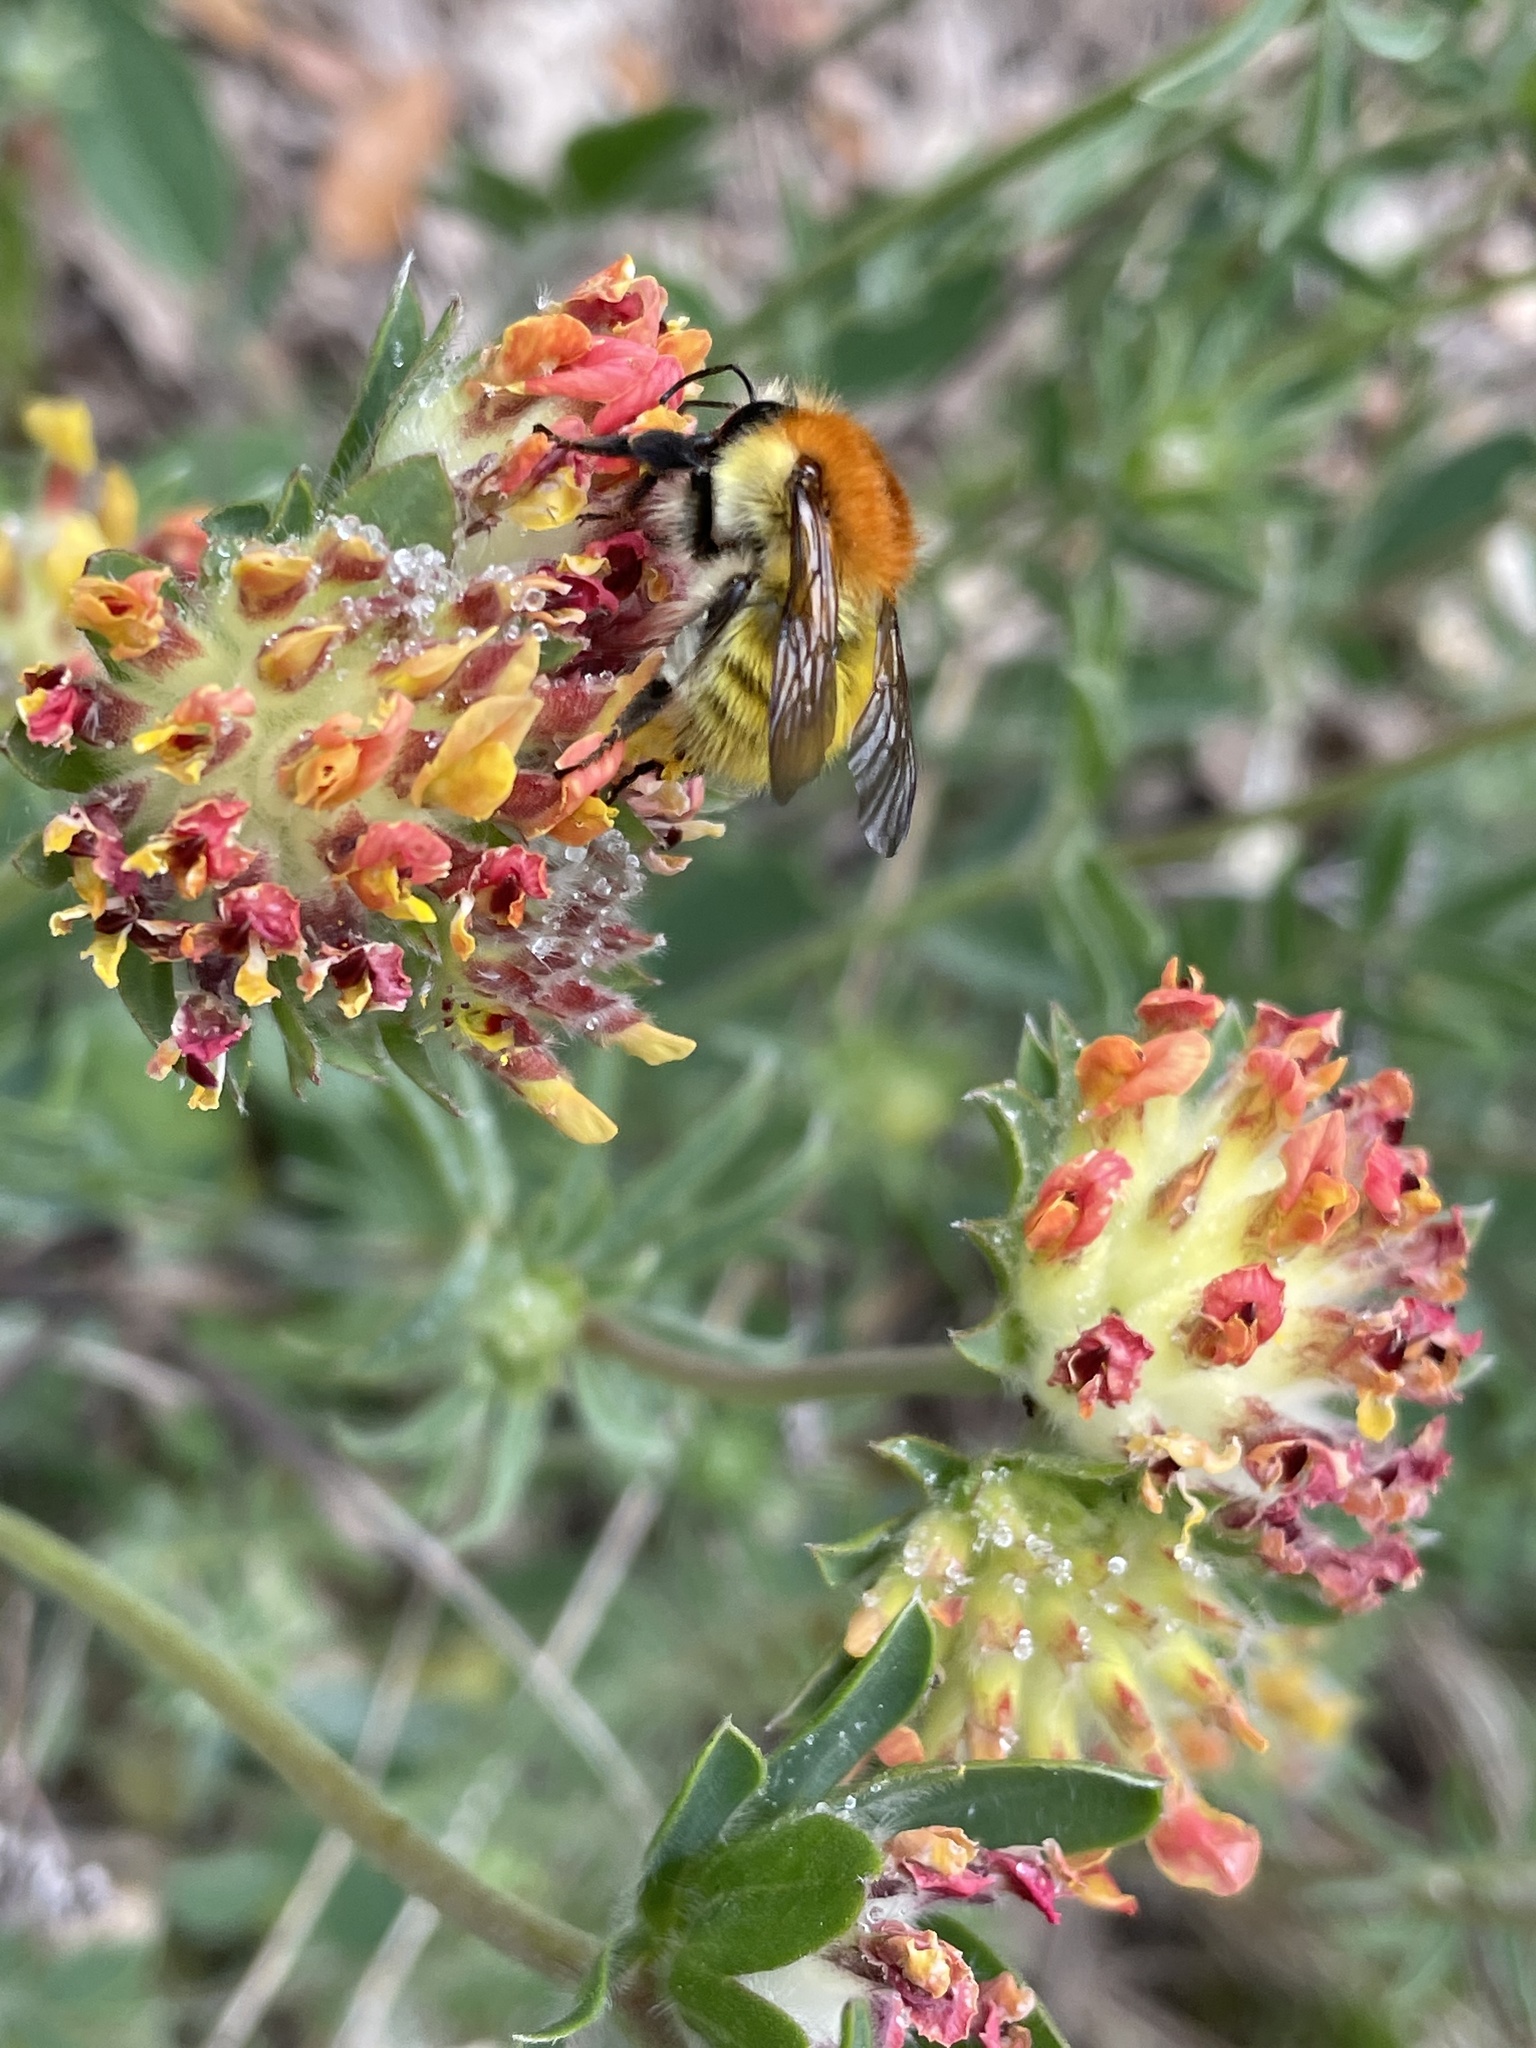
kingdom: Animalia
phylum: Arthropoda
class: Insecta
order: Hymenoptera
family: Apidae
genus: Bombus
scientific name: Bombus pascuorum
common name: Common carder bee
